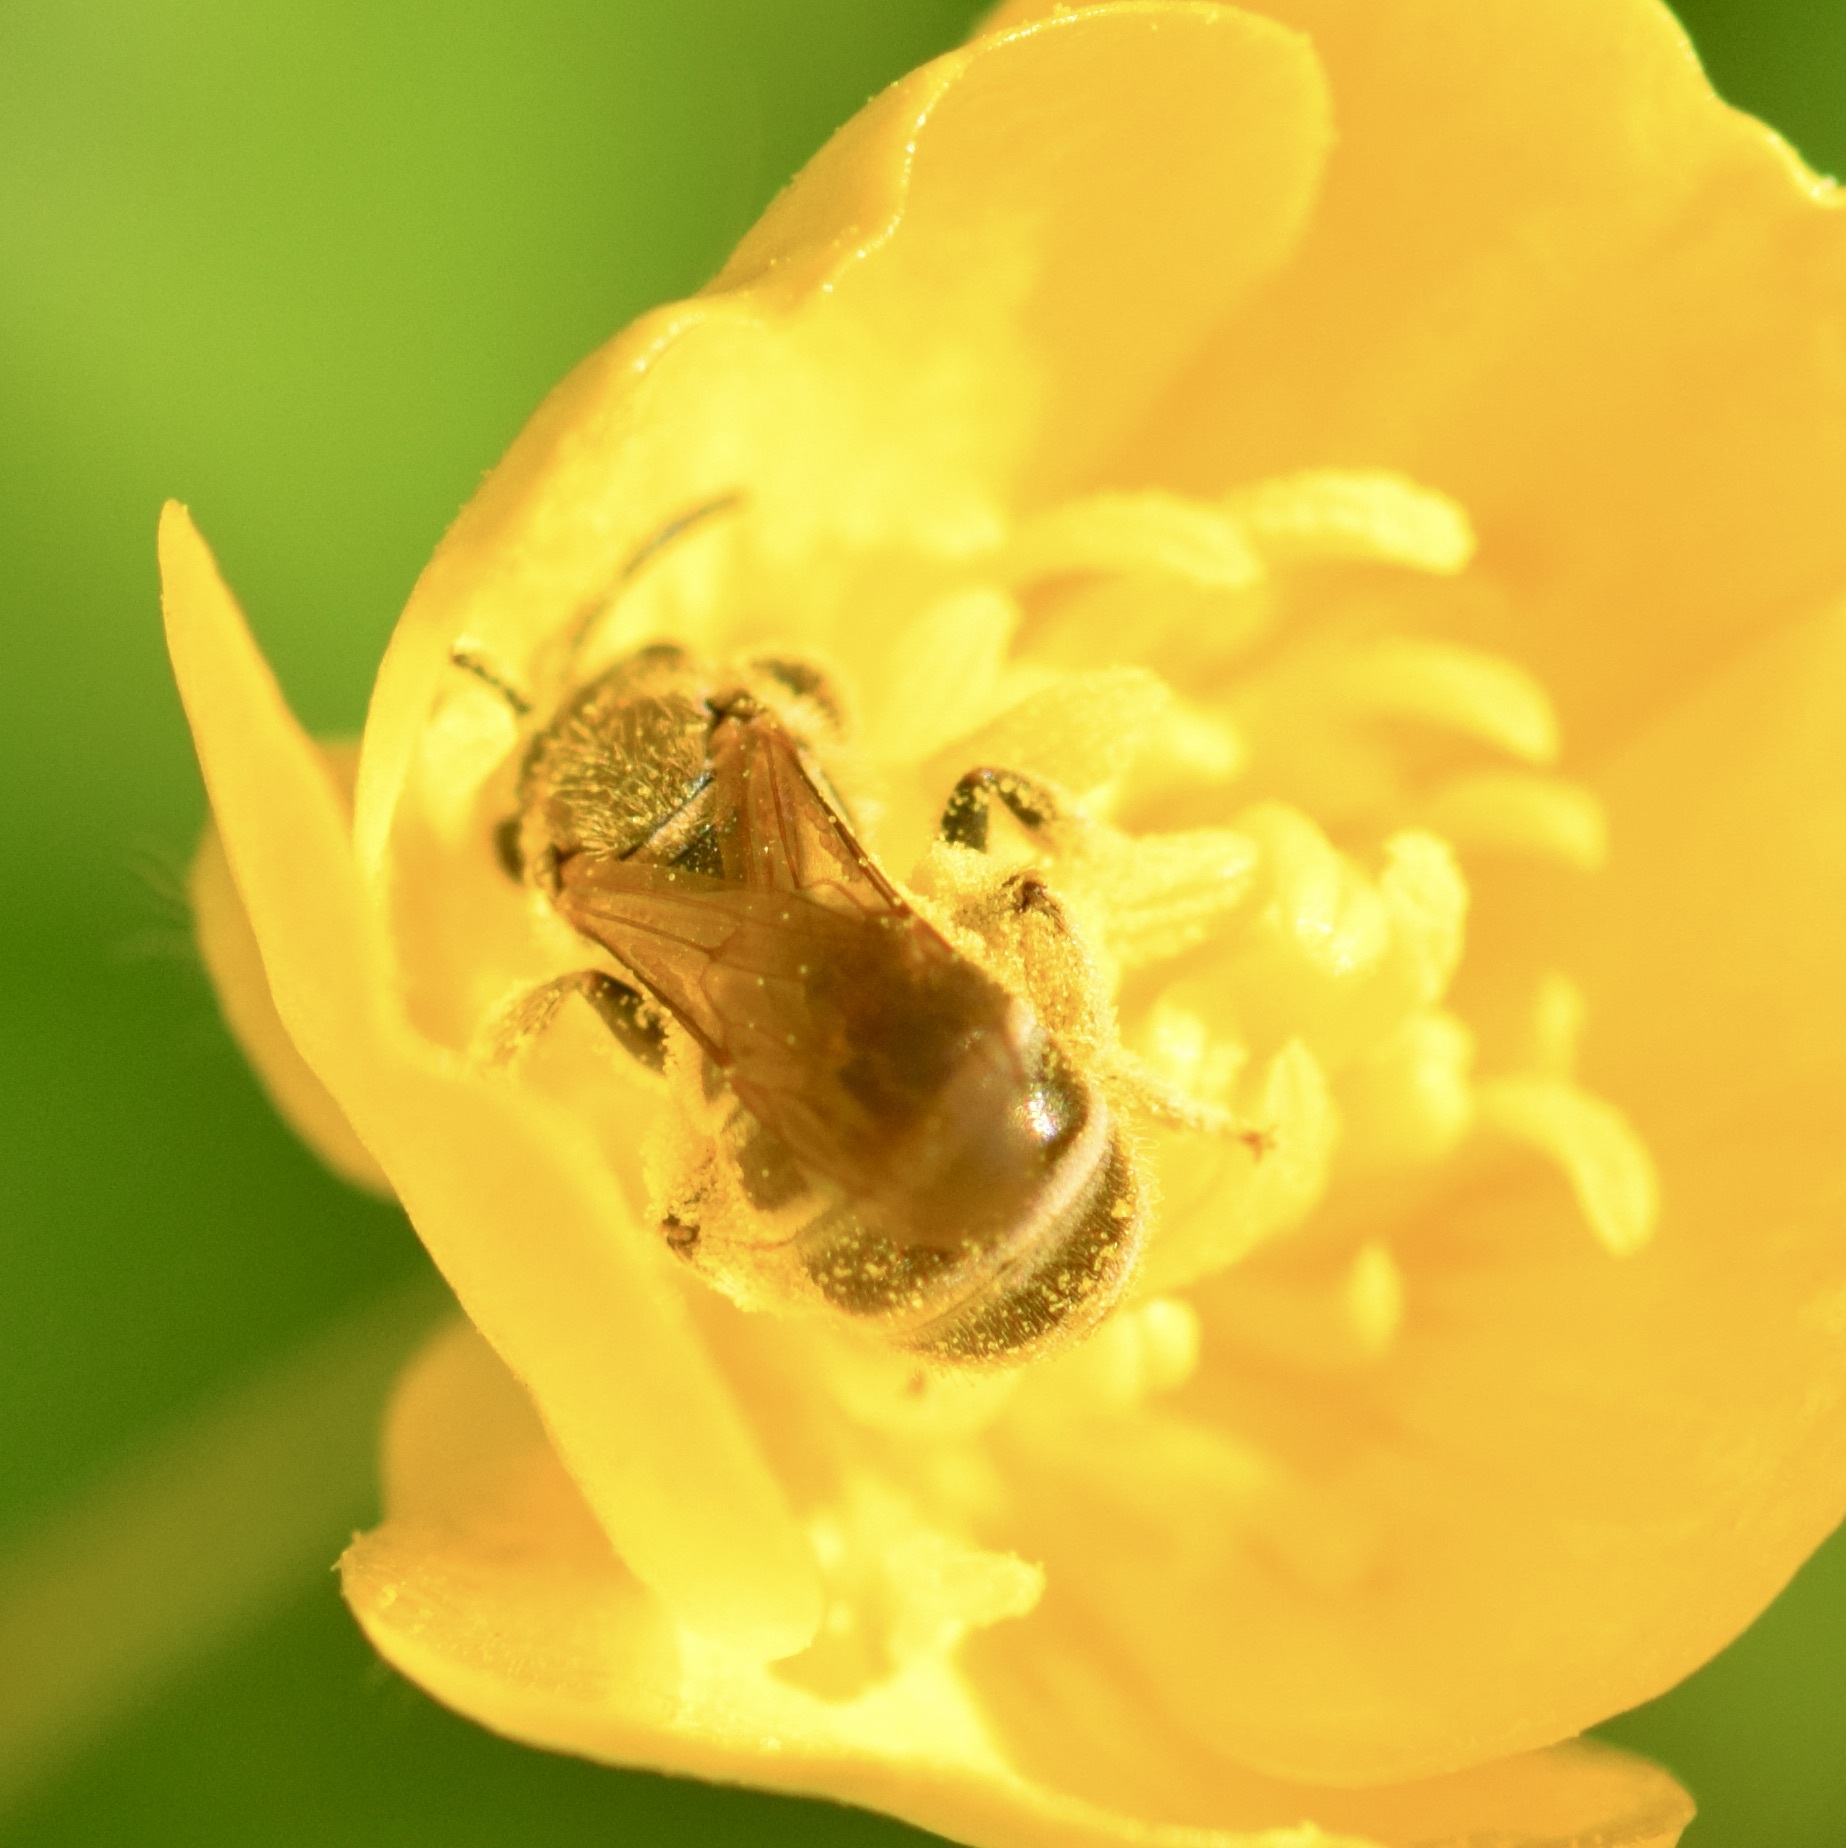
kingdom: Animalia
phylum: Arthropoda
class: Insecta
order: Hymenoptera
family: Halictidae
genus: Halictus
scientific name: Halictus confusus
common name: Southern bronze furrow bee
